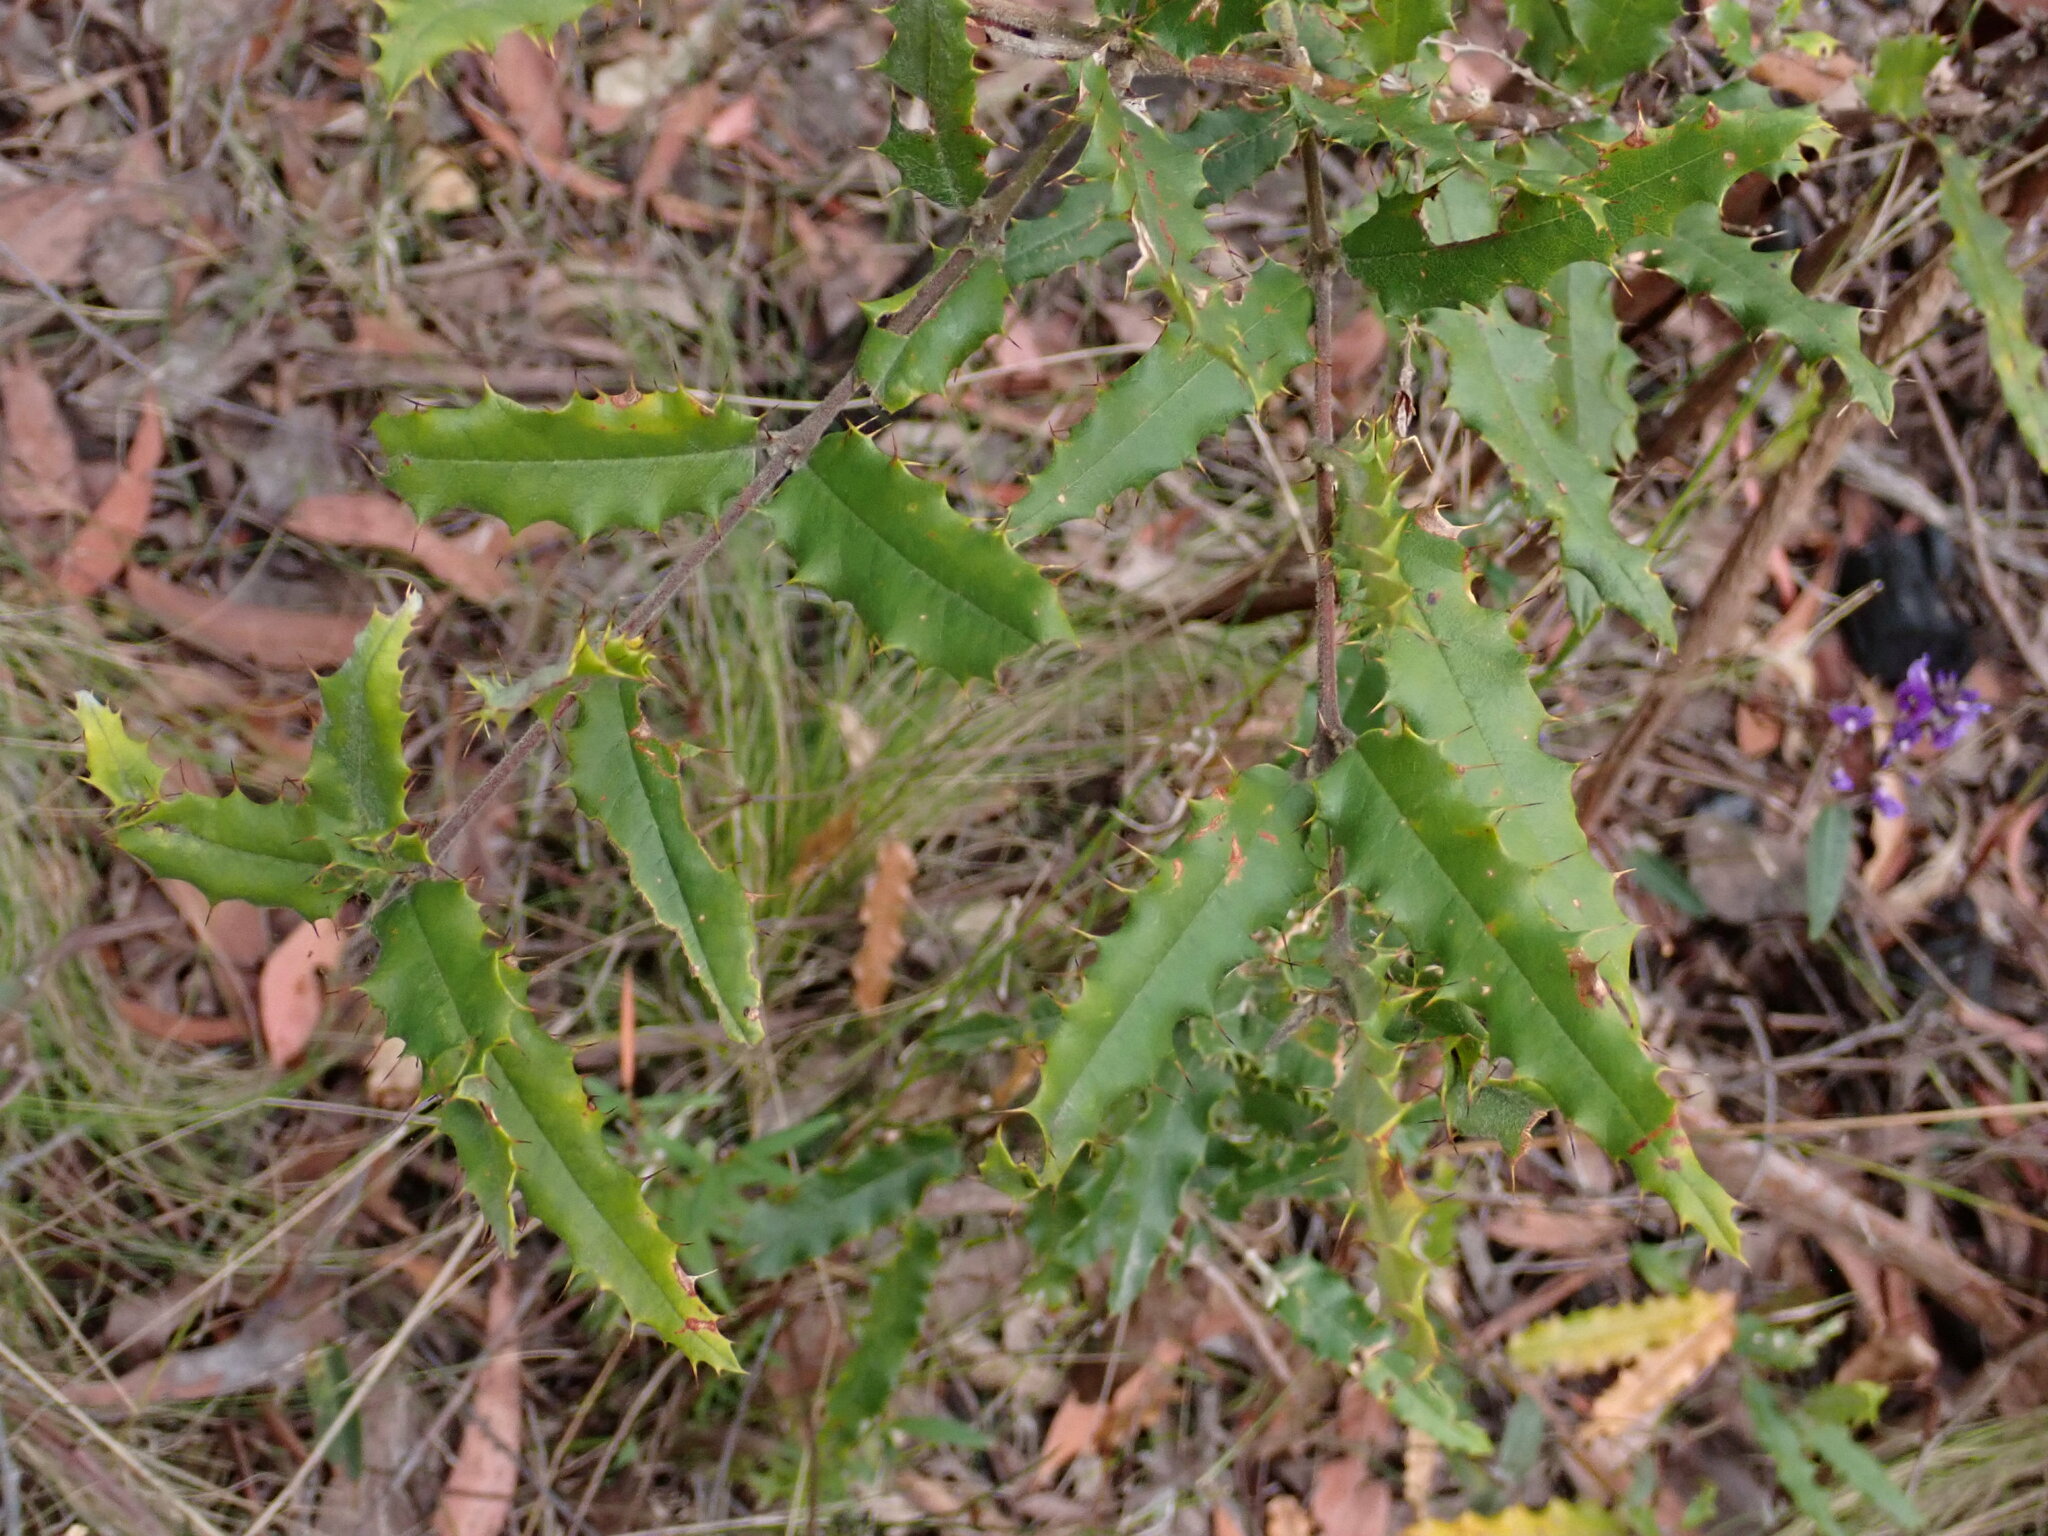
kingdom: Plantae
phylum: Tracheophyta
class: Magnoliopsida
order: Fabales
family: Fabaceae
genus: Podolobium
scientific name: Podolobium aestivum
